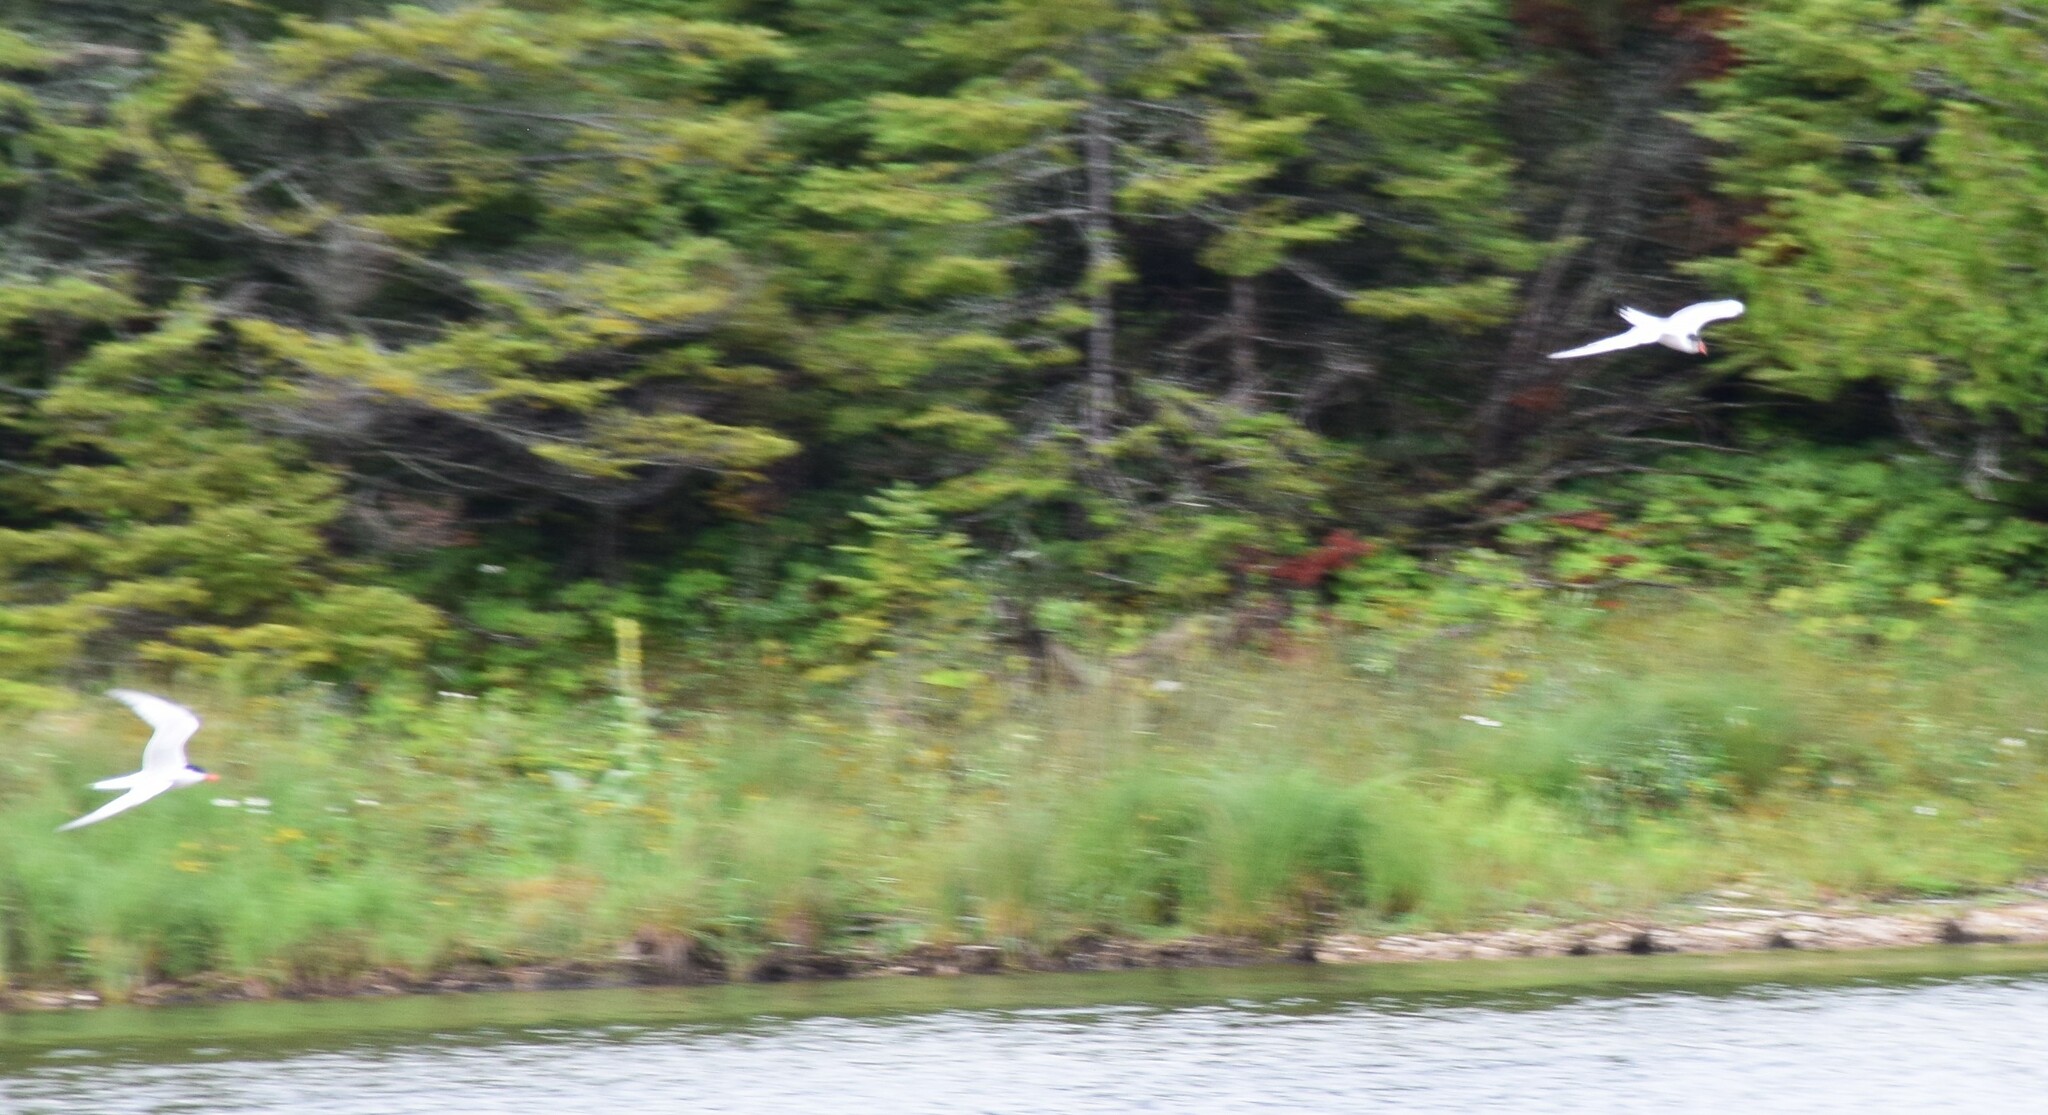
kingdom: Animalia
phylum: Chordata
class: Aves
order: Charadriiformes
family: Laridae
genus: Sterna
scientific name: Sterna hirundo
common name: Common tern
